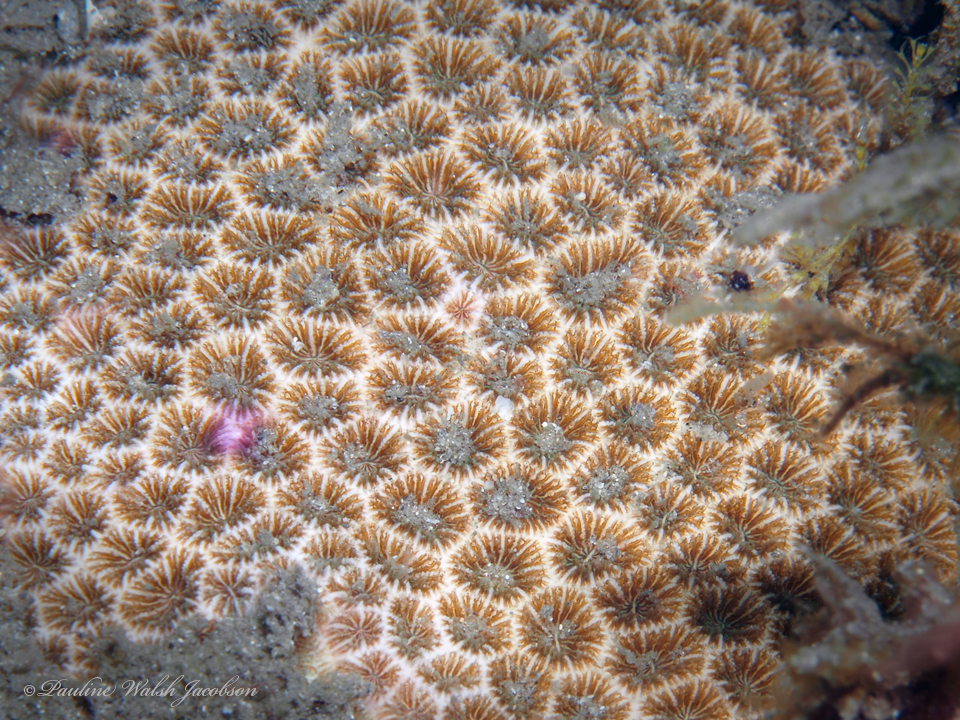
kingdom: Animalia
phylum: Cnidaria
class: Anthozoa
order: Scleractinia
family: Rhizangiidae
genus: Siderastrea
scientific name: Siderastrea radians
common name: Lesser starlet coral
